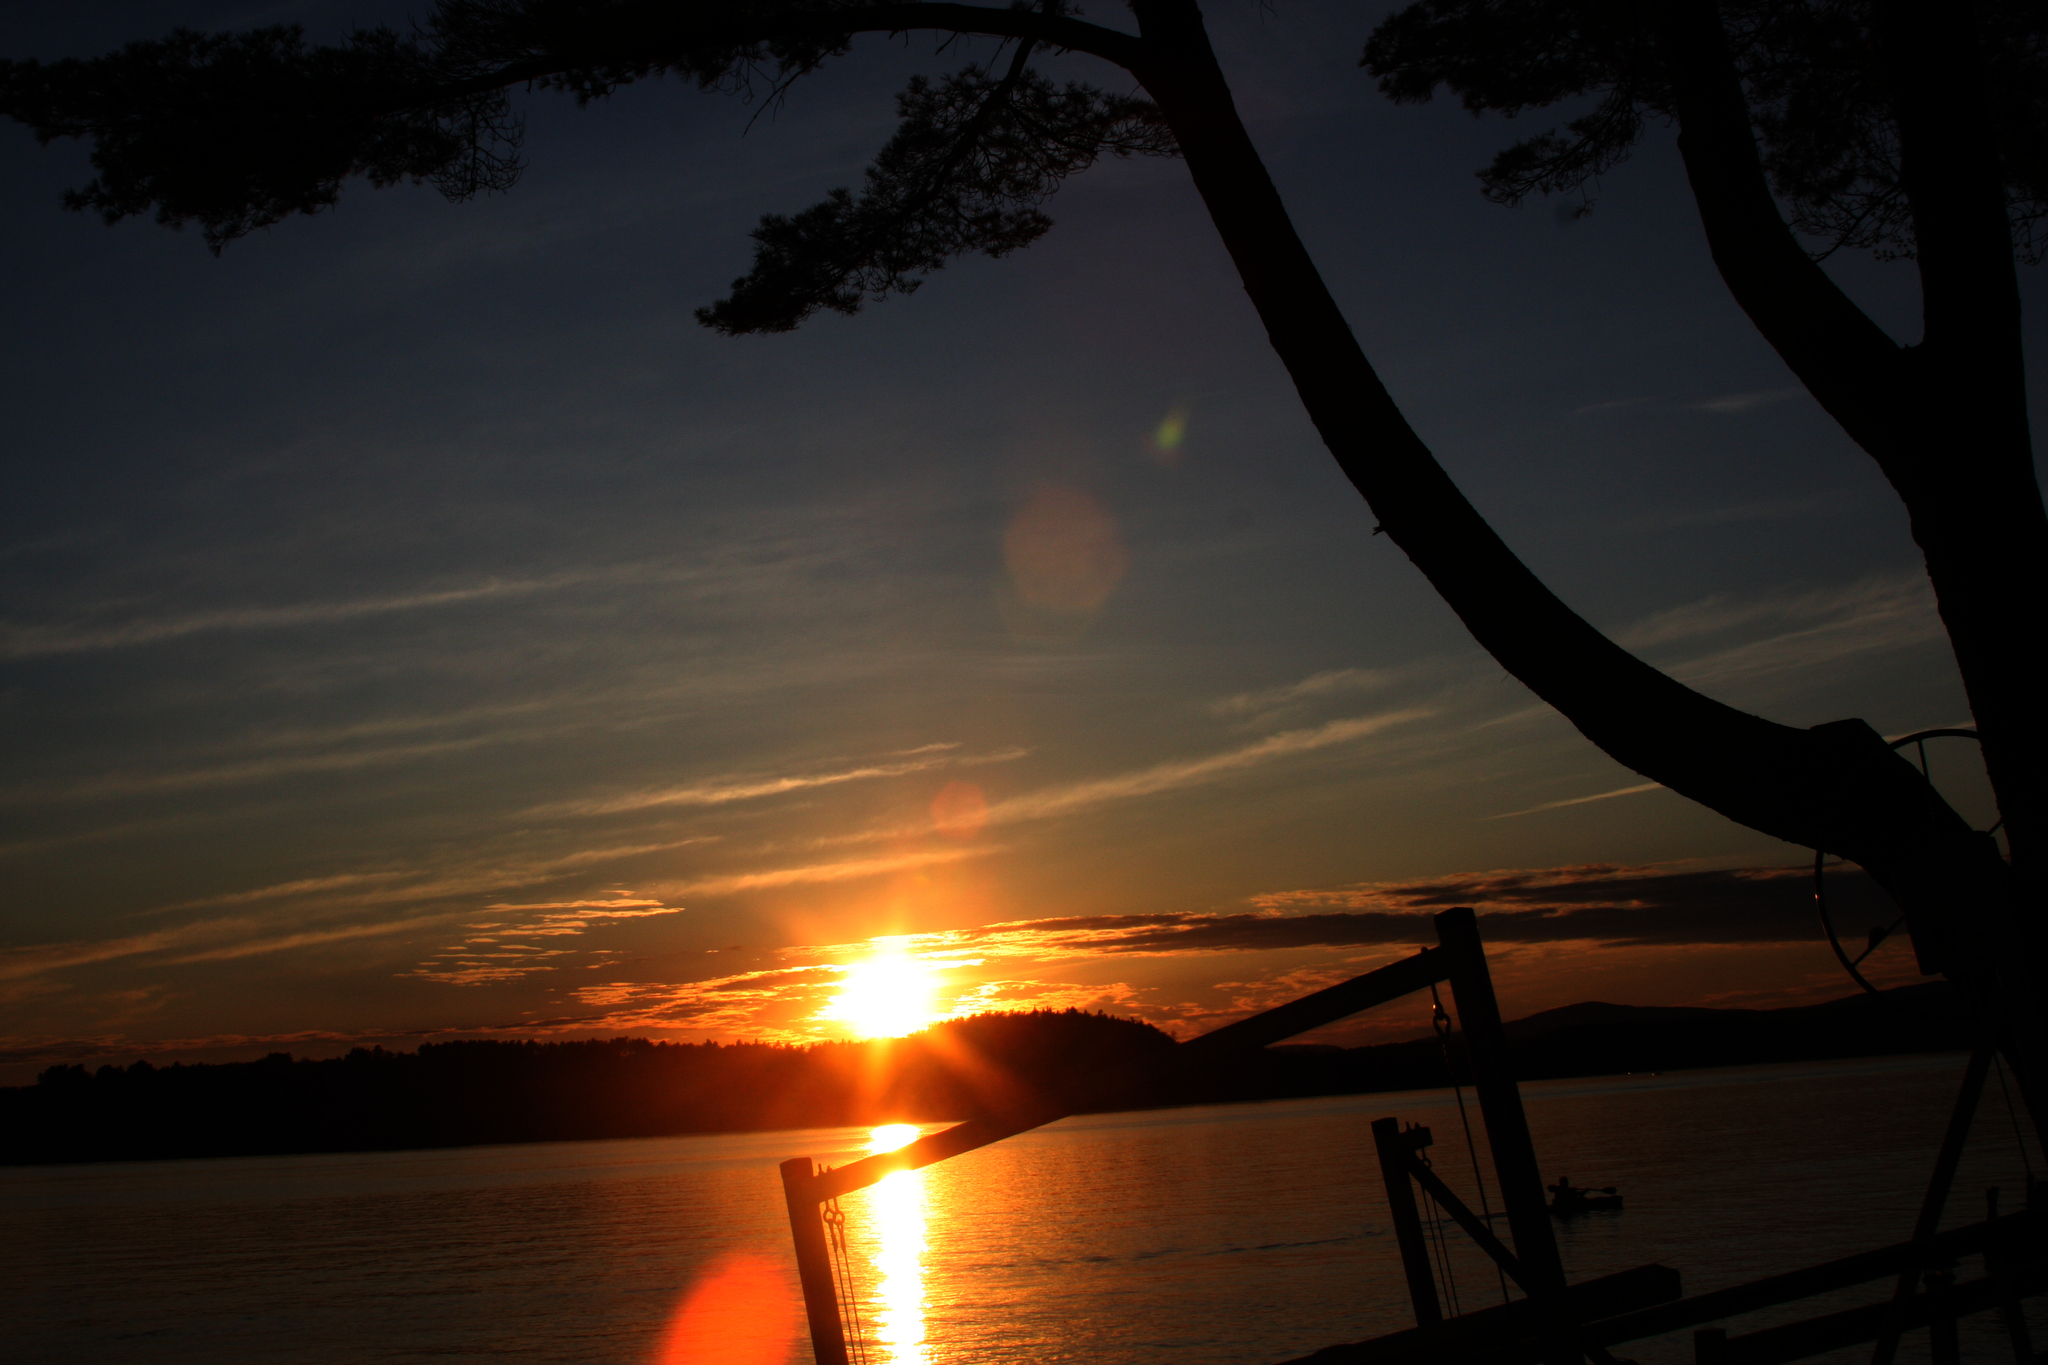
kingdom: Plantae
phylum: Tracheophyta
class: Pinopsida
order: Pinales
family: Pinaceae
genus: Pinus
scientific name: Pinus strobus
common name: Weymouth pine
